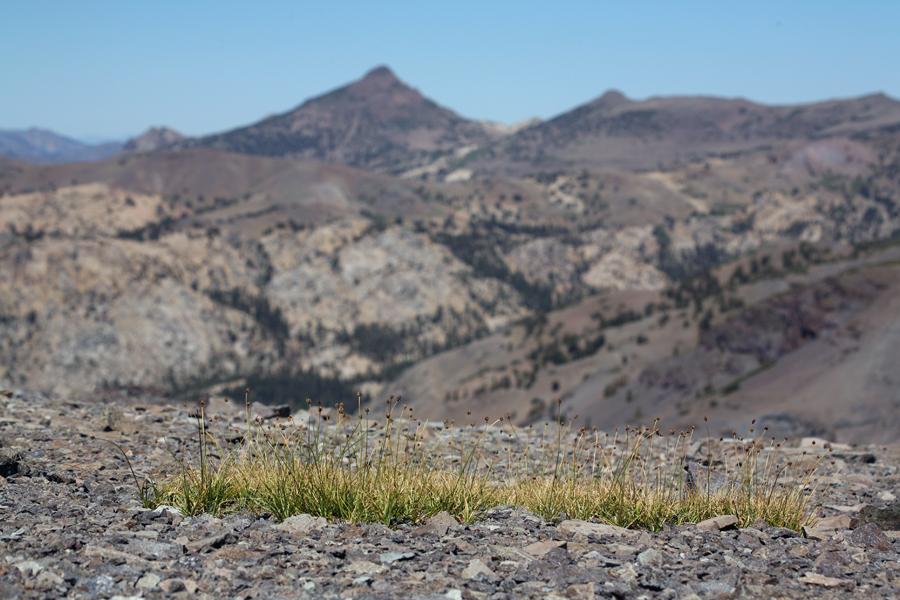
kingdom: Plantae
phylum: Tracheophyta
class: Liliopsida
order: Poales
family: Cyperaceae
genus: Carex
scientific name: Carex vernacula
